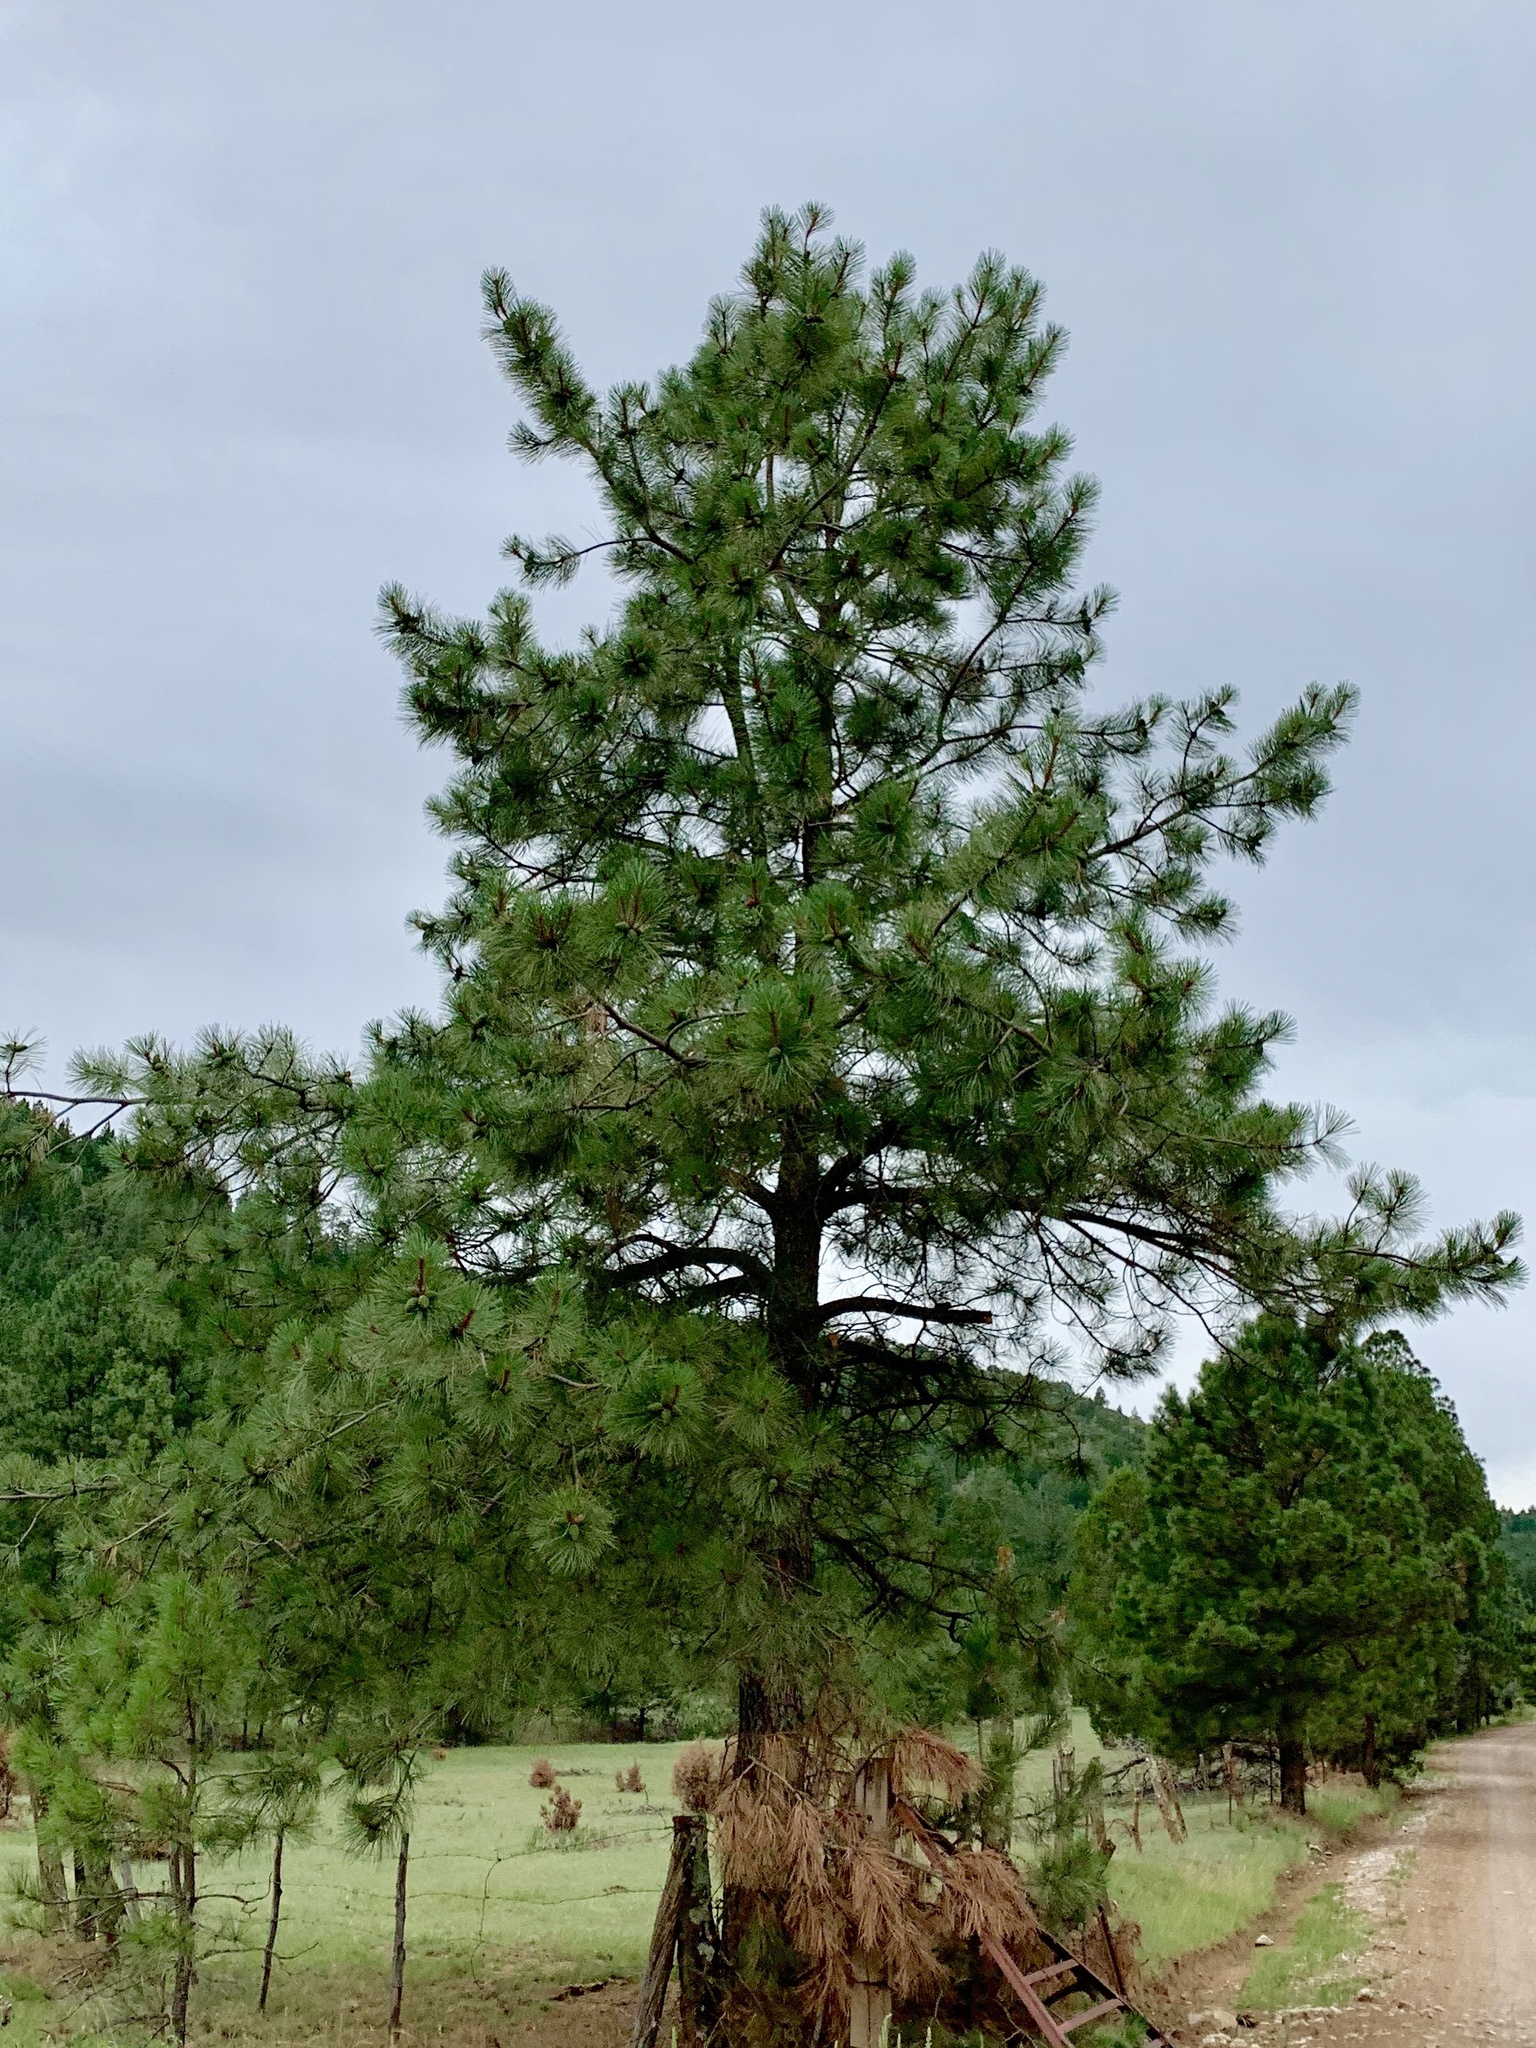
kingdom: Plantae
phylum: Tracheophyta
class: Pinopsida
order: Pinales
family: Pinaceae
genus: Pinus
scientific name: Pinus ponderosa
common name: Western yellow-pine
